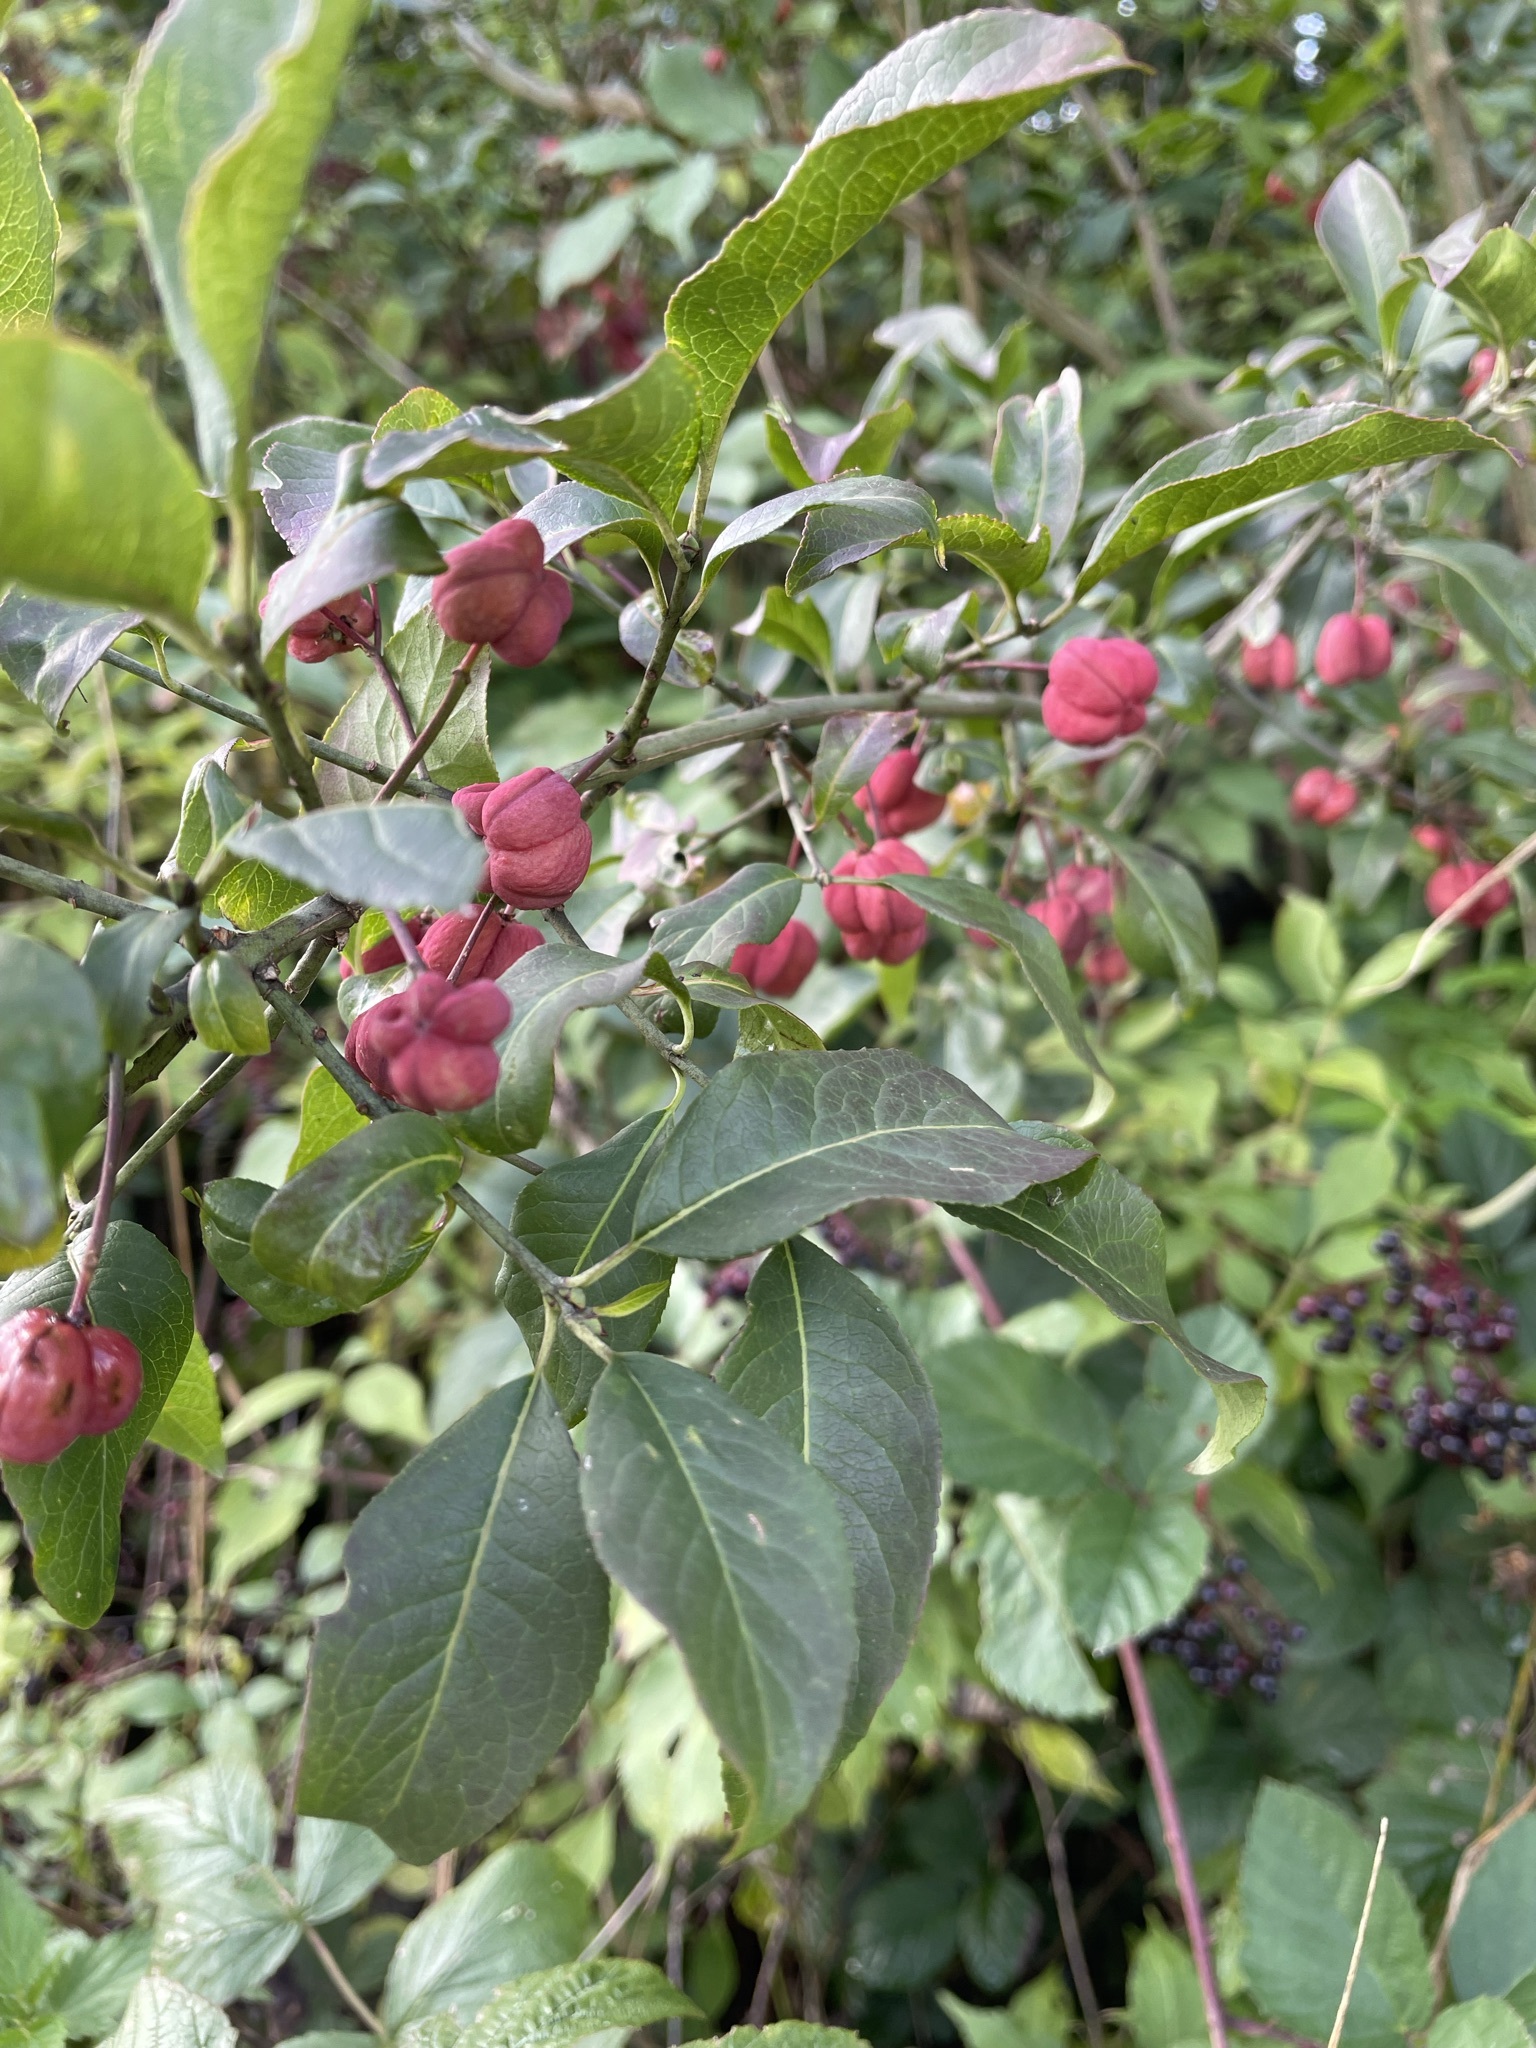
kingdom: Plantae
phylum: Tracheophyta
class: Magnoliopsida
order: Celastrales
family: Celastraceae
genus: Euonymus
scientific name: Euonymus europaeus
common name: Spindle
